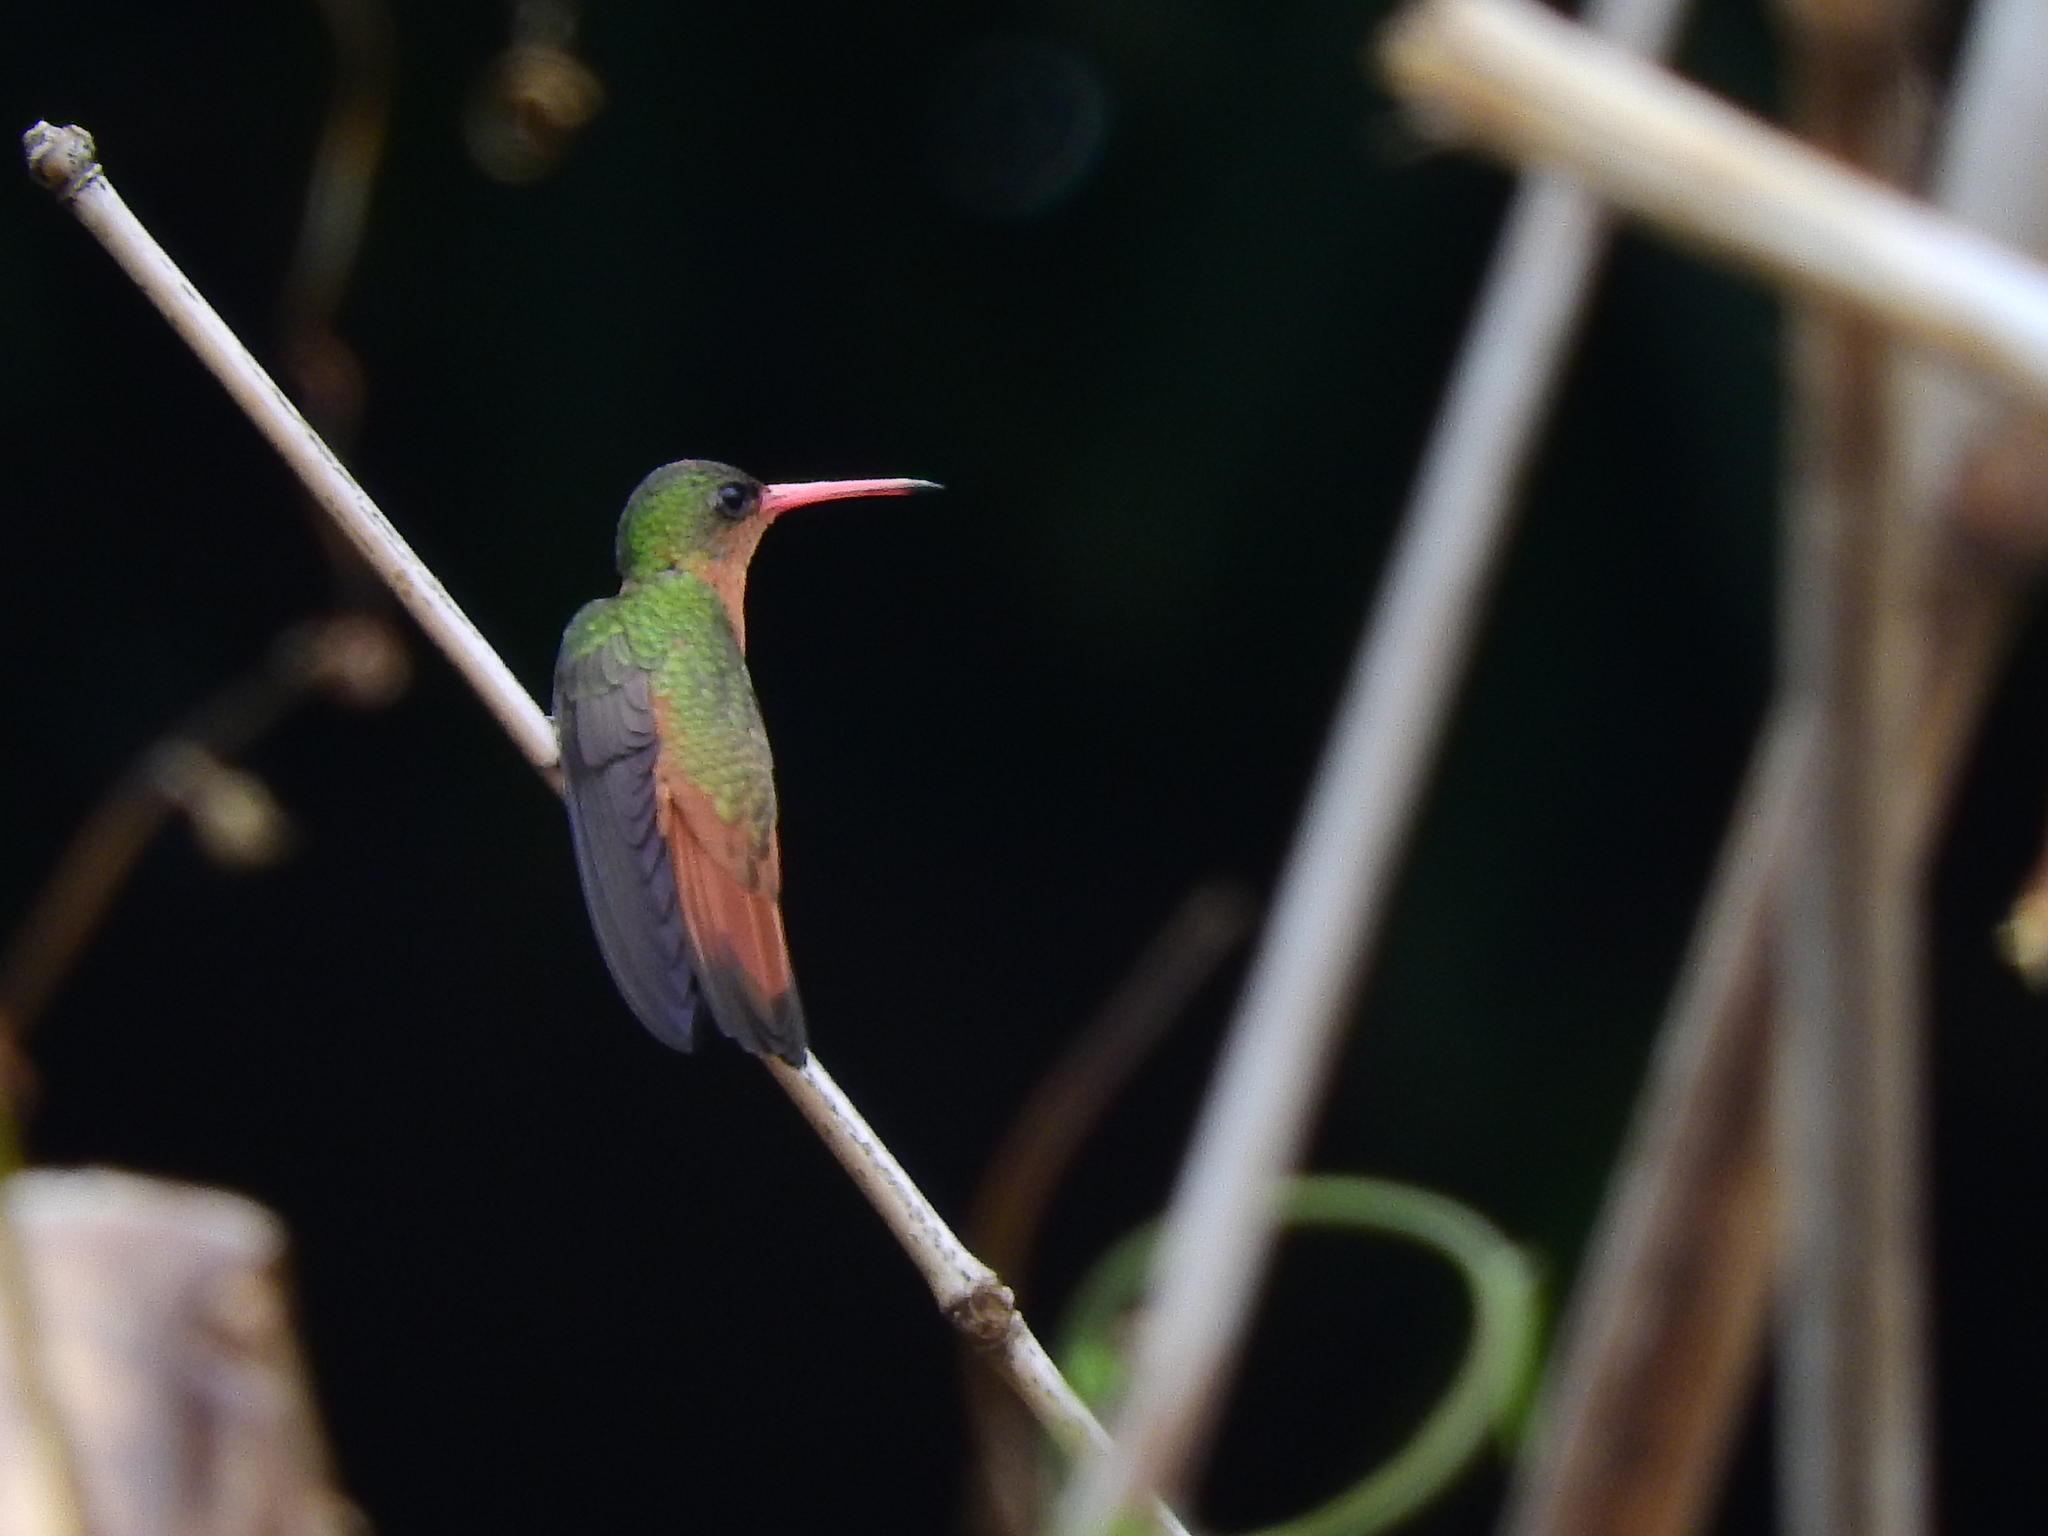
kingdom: Animalia
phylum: Chordata
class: Aves
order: Apodiformes
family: Trochilidae
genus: Amazilia
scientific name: Amazilia rutila
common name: Cinnamon hummingbird
